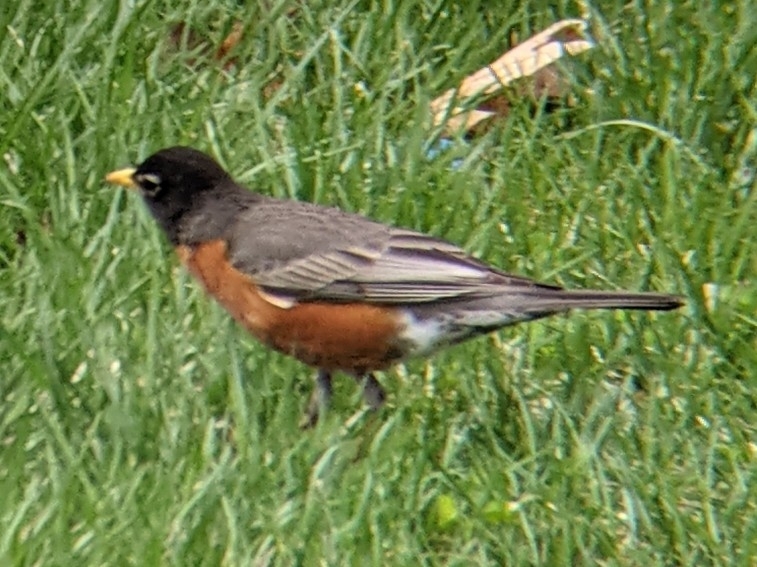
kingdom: Animalia
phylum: Chordata
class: Aves
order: Passeriformes
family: Turdidae
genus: Turdus
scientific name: Turdus migratorius
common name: American robin
